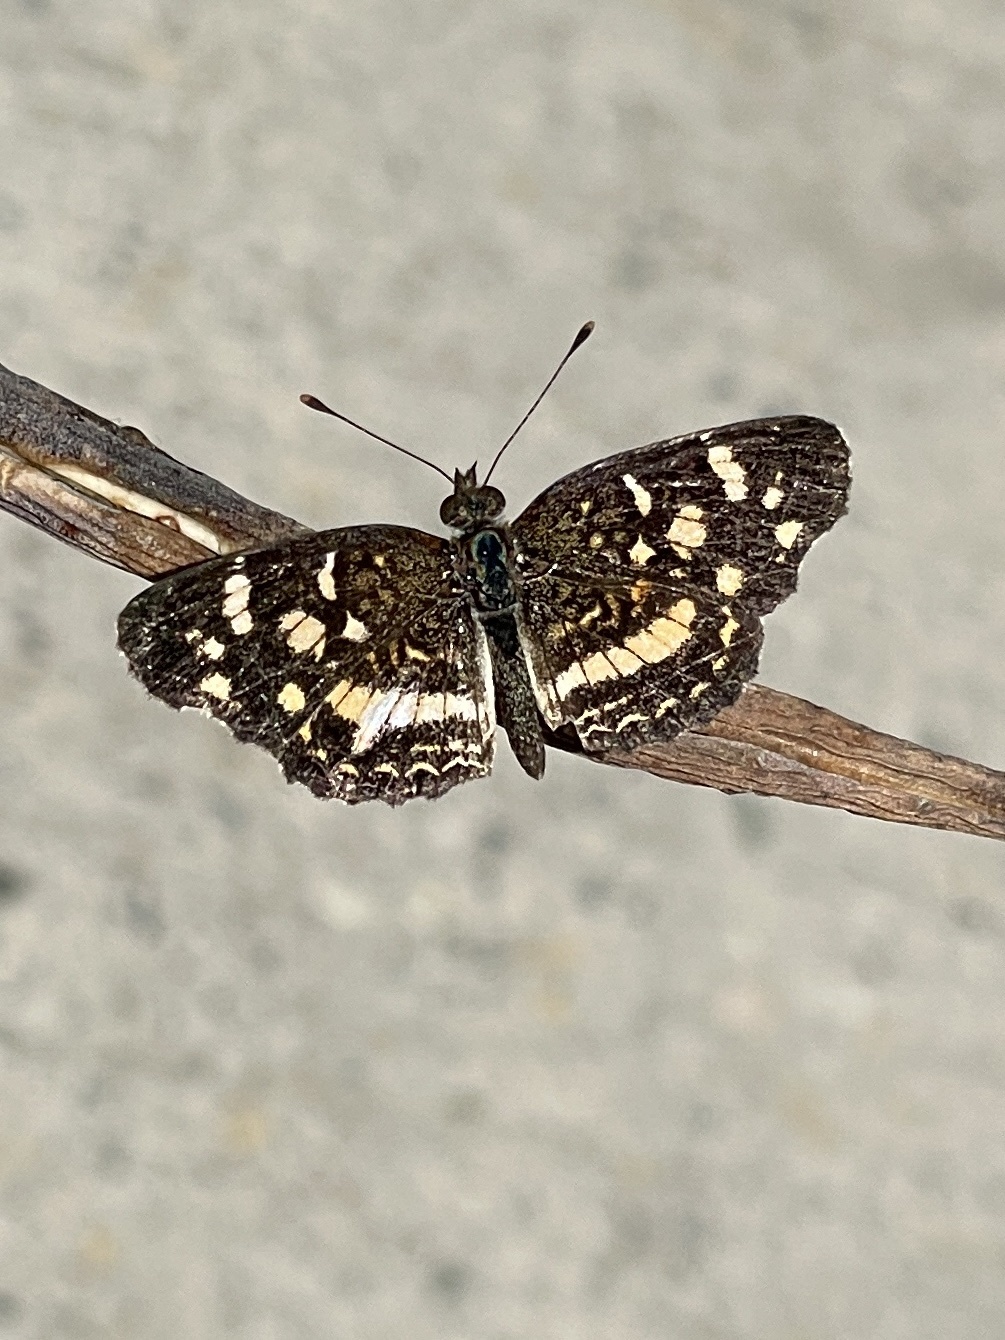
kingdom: Animalia
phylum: Arthropoda
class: Insecta
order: Lepidoptera
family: Nymphalidae
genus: Anthanassa
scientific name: Anthanassa tulcis
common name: Pale-banded crescent
